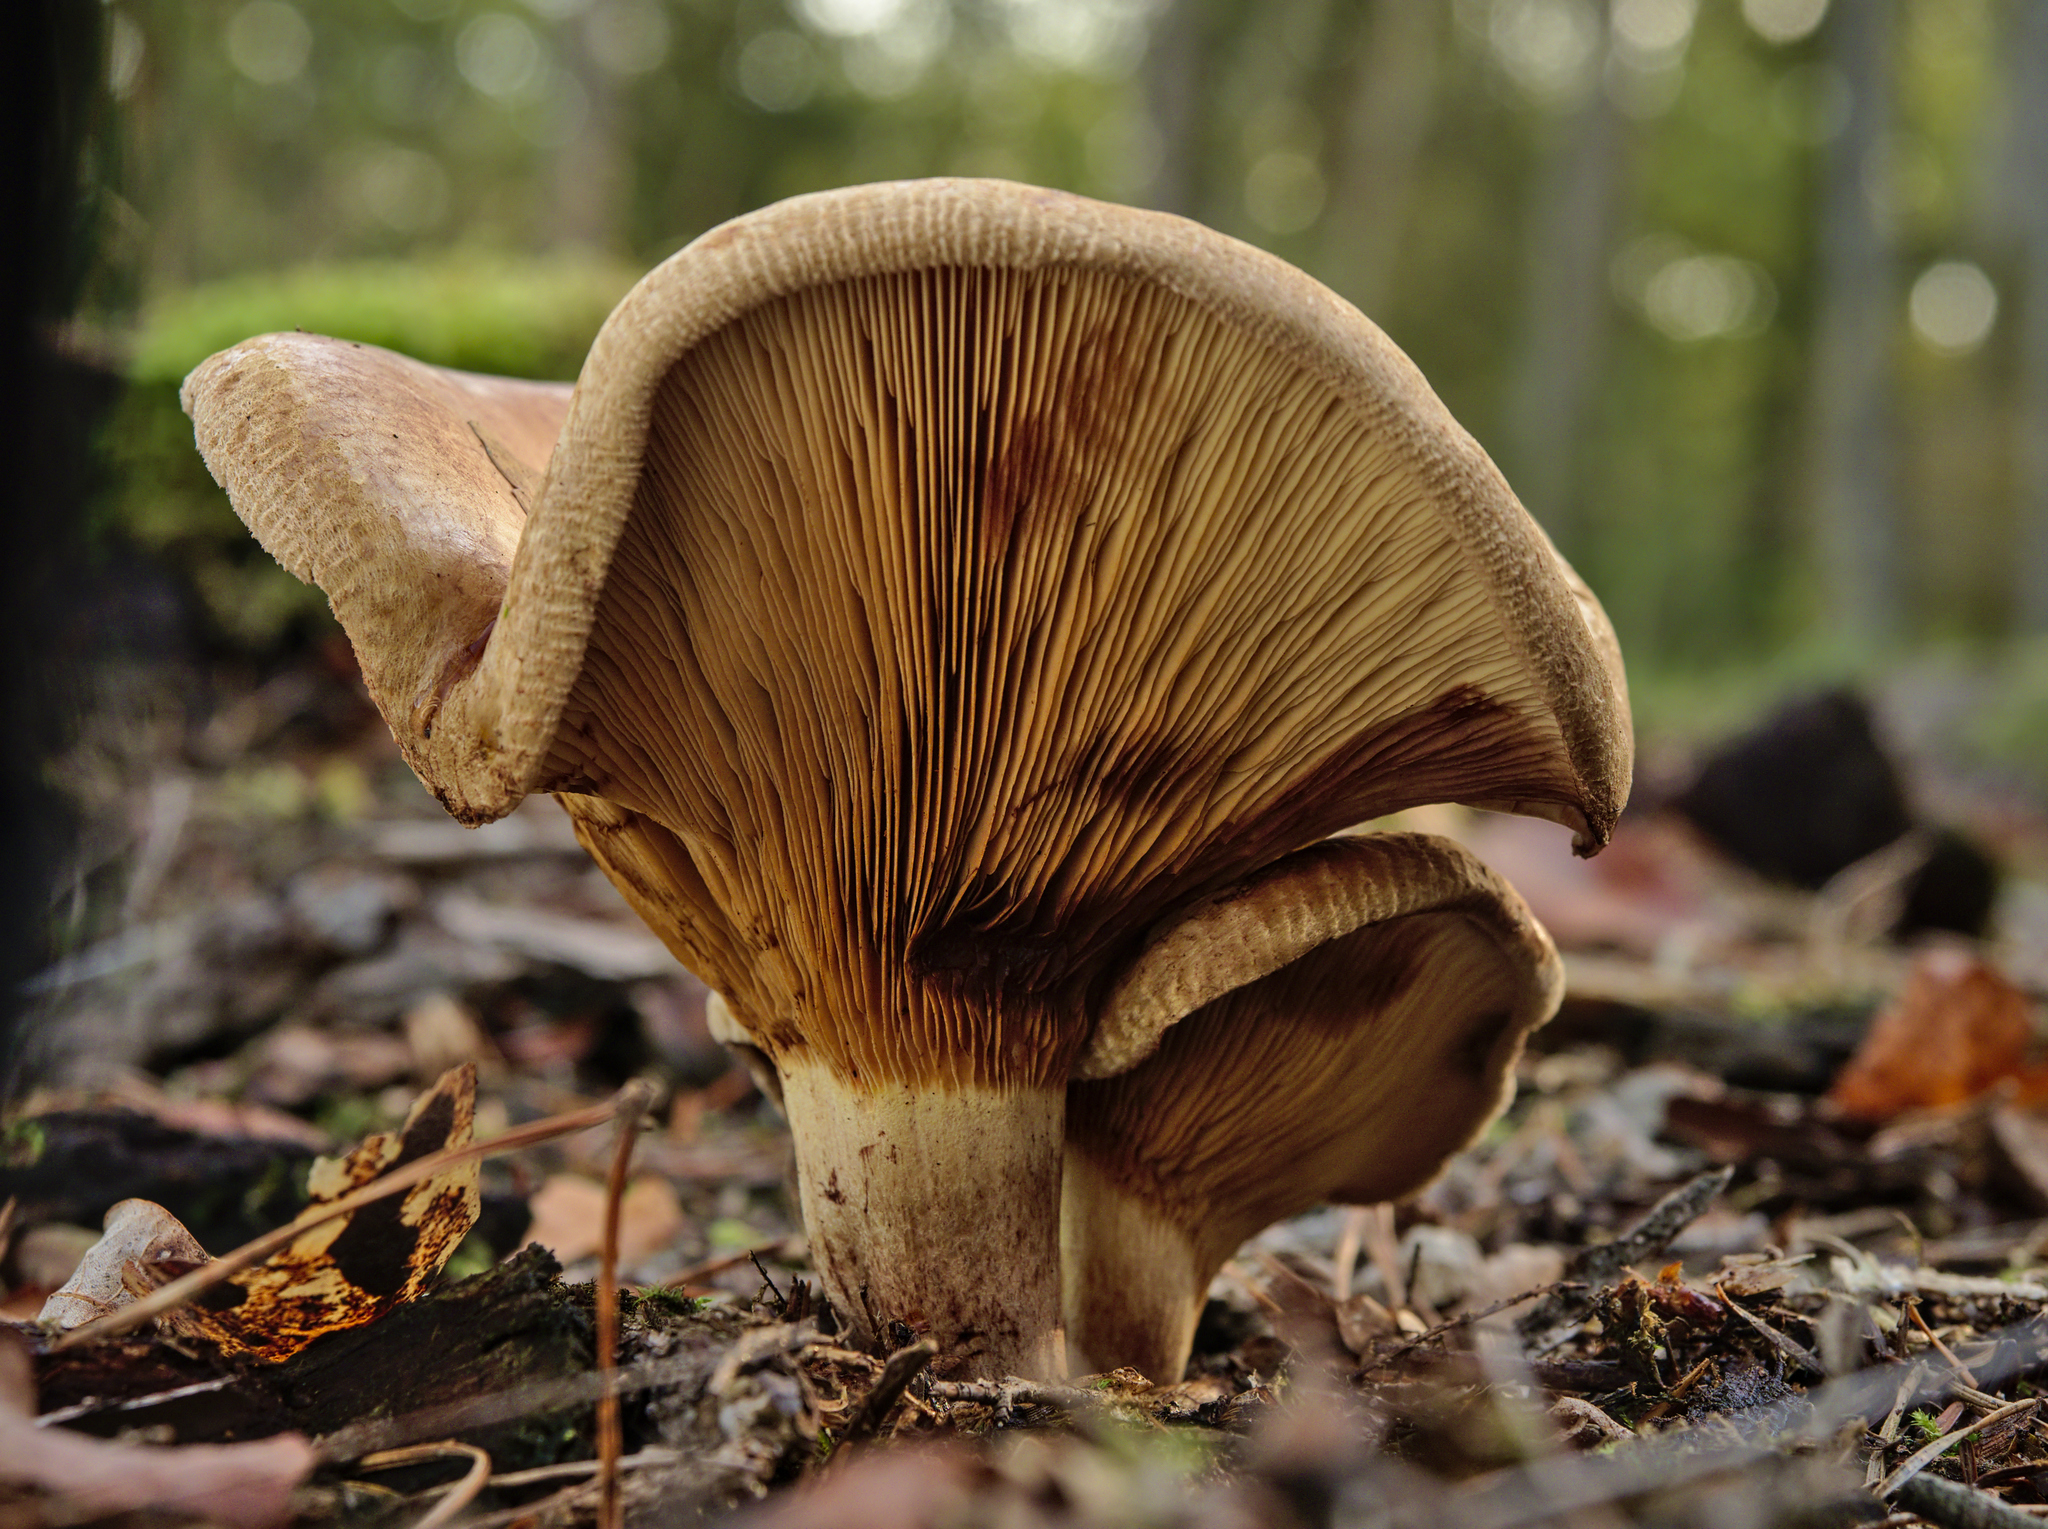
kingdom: Fungi
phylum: Basidiomycota
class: Agaricomycetes
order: Boletales
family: Paxillaceae
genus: Paxillus
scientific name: Paxillus involutus
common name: Brown roll rim
